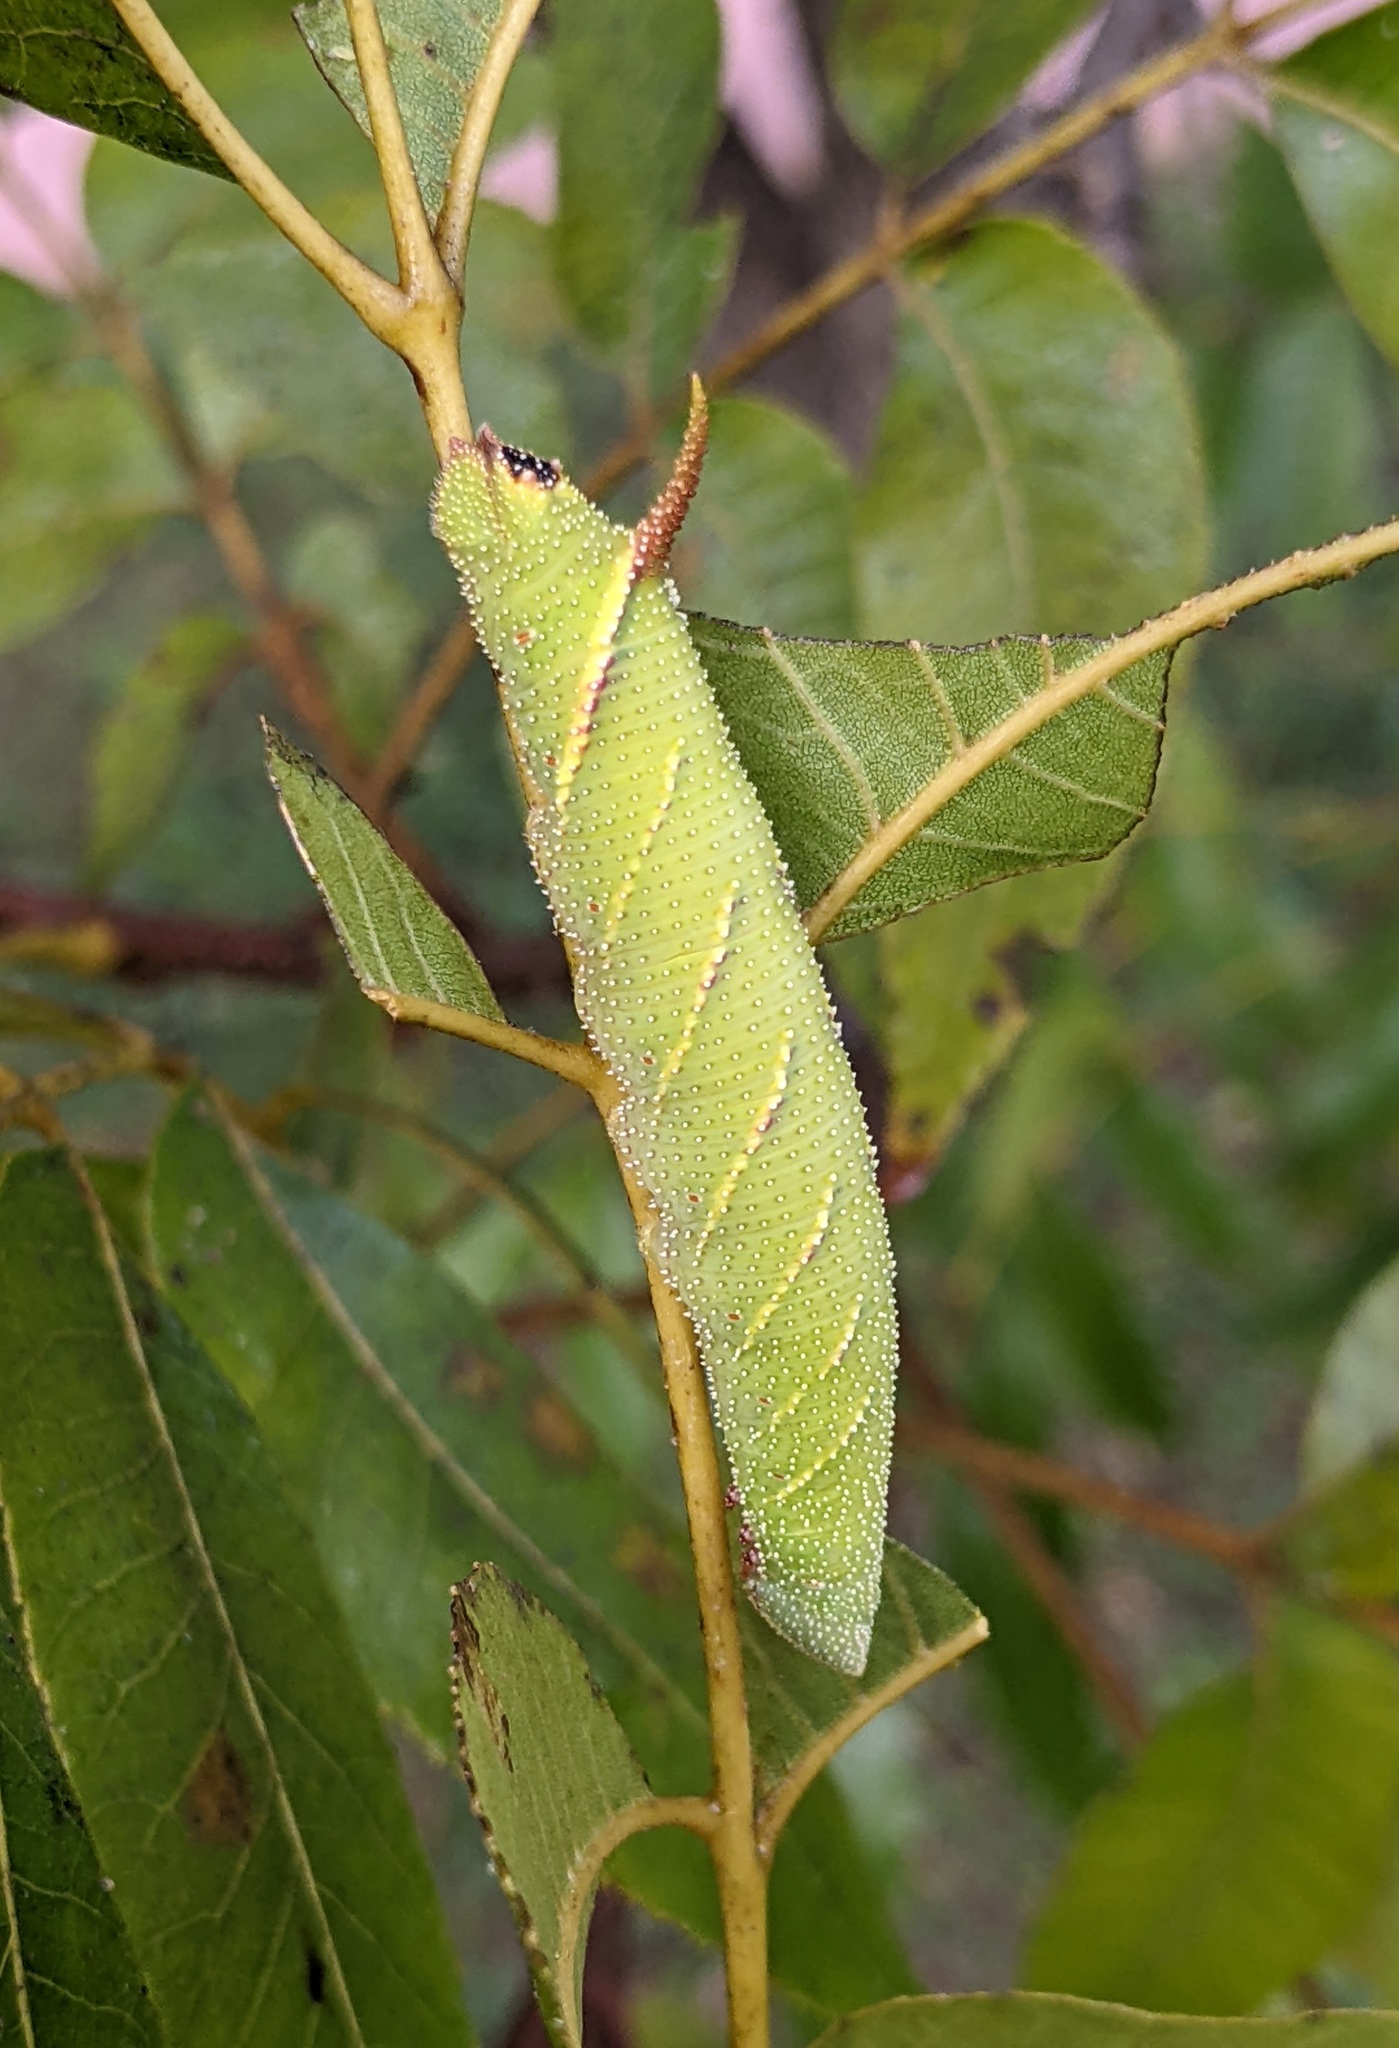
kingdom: Animalia
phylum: Arthropoda
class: Insecta
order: Lepidoptera
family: Sphingidae
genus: Amorpha
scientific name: Amorpha juglandis
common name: Walnut sphinx
